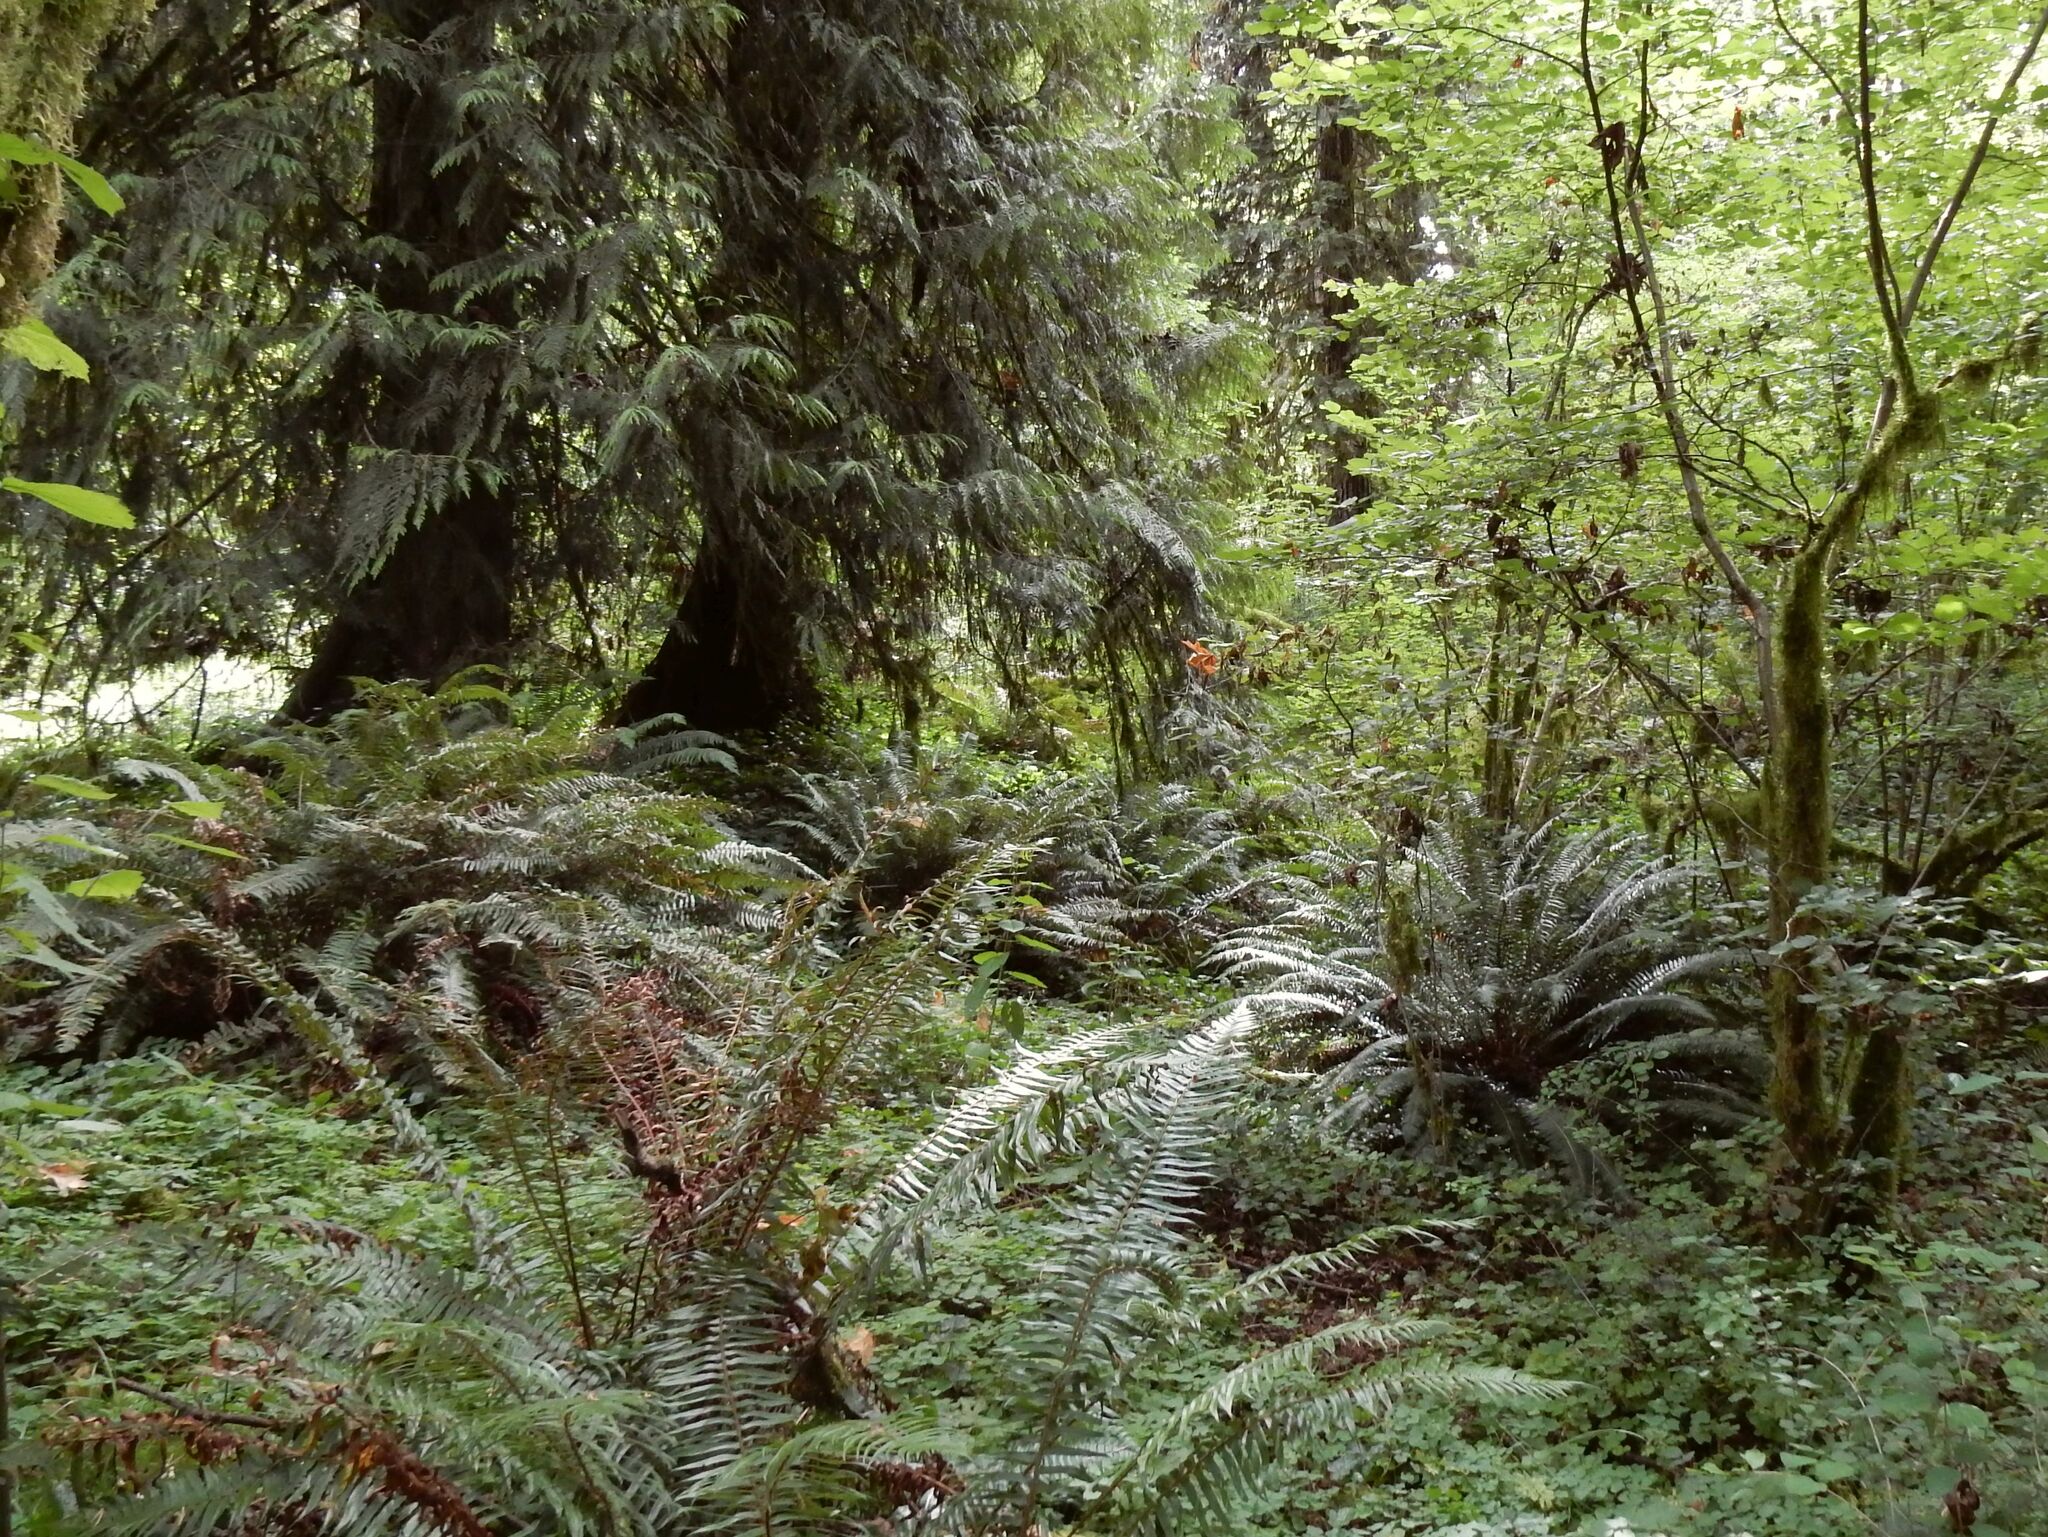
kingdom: Plantae
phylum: Tracheophyta
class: Polypodiopsida
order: Polypodiales
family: Dryopteridaceae
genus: Polystichum
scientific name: Polystichum munitum
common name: Western sword-fern
